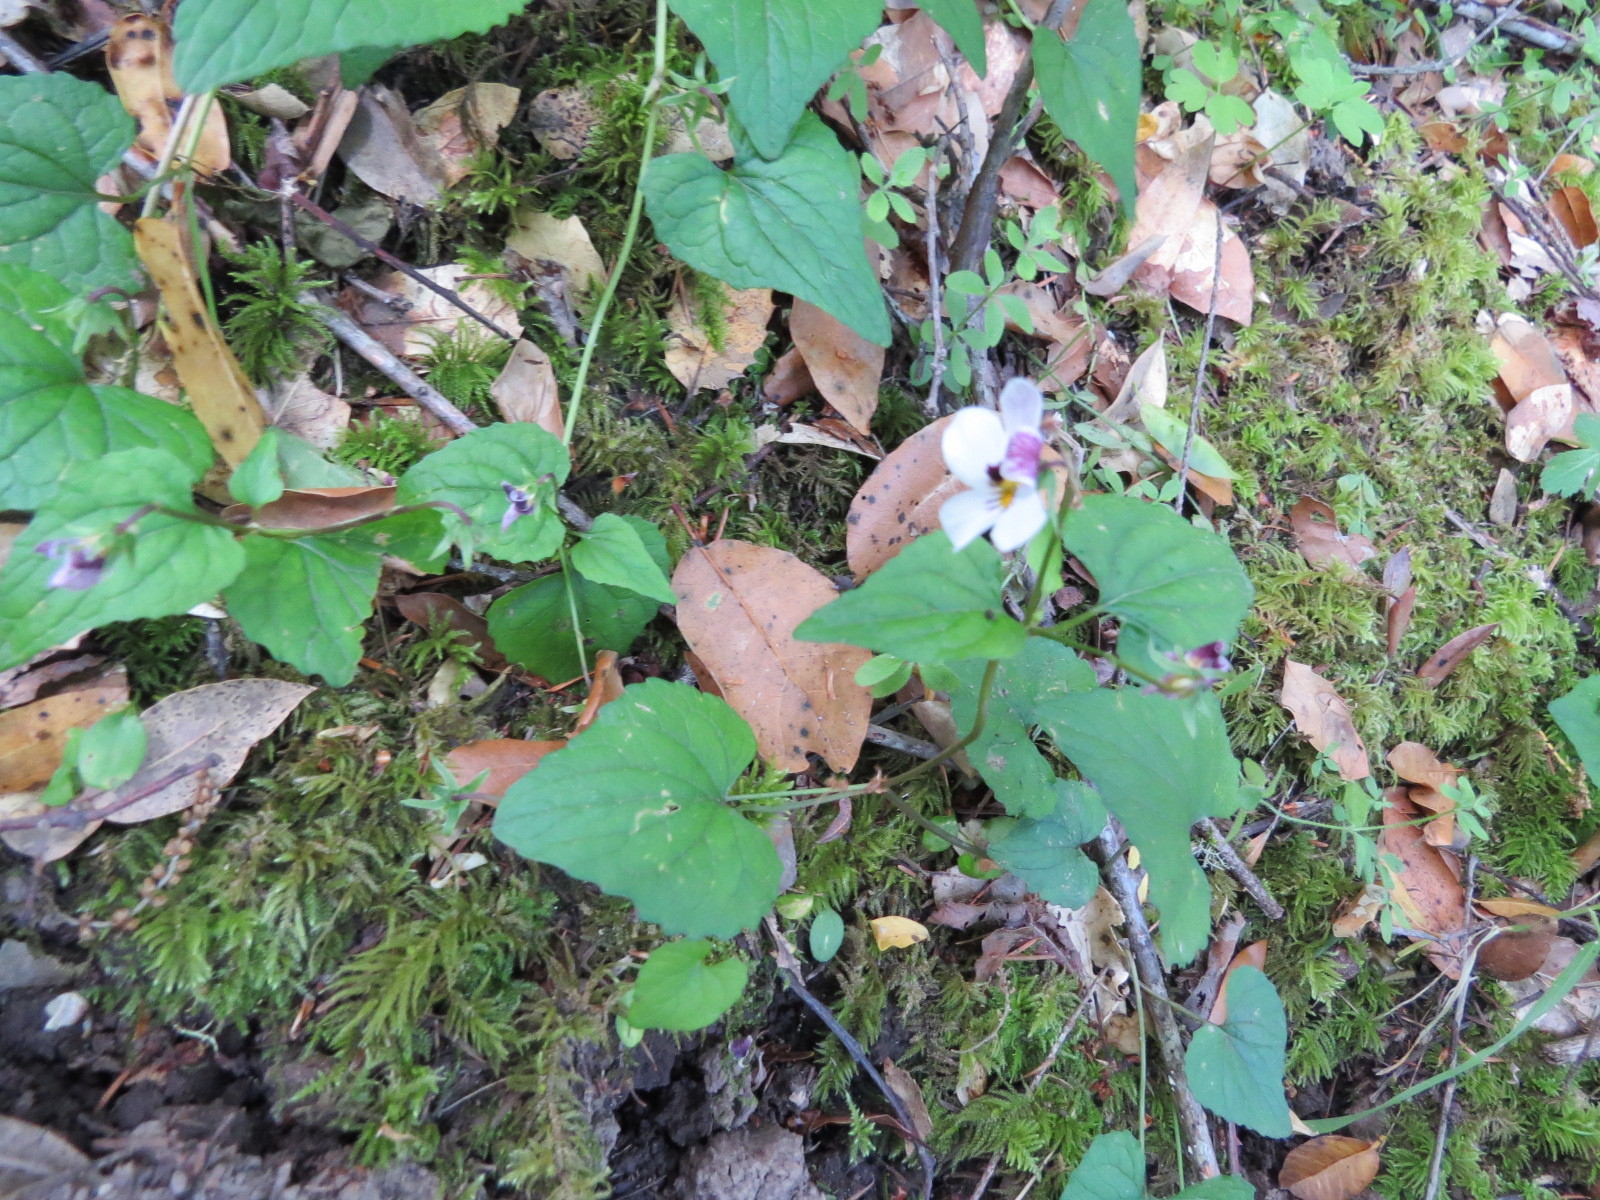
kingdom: Plantae
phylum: Tracheophyta
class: Magnoliopsida
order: Malpighiales
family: Violaceae
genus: Viola
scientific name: Viola ocellata
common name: Western heart's ease
